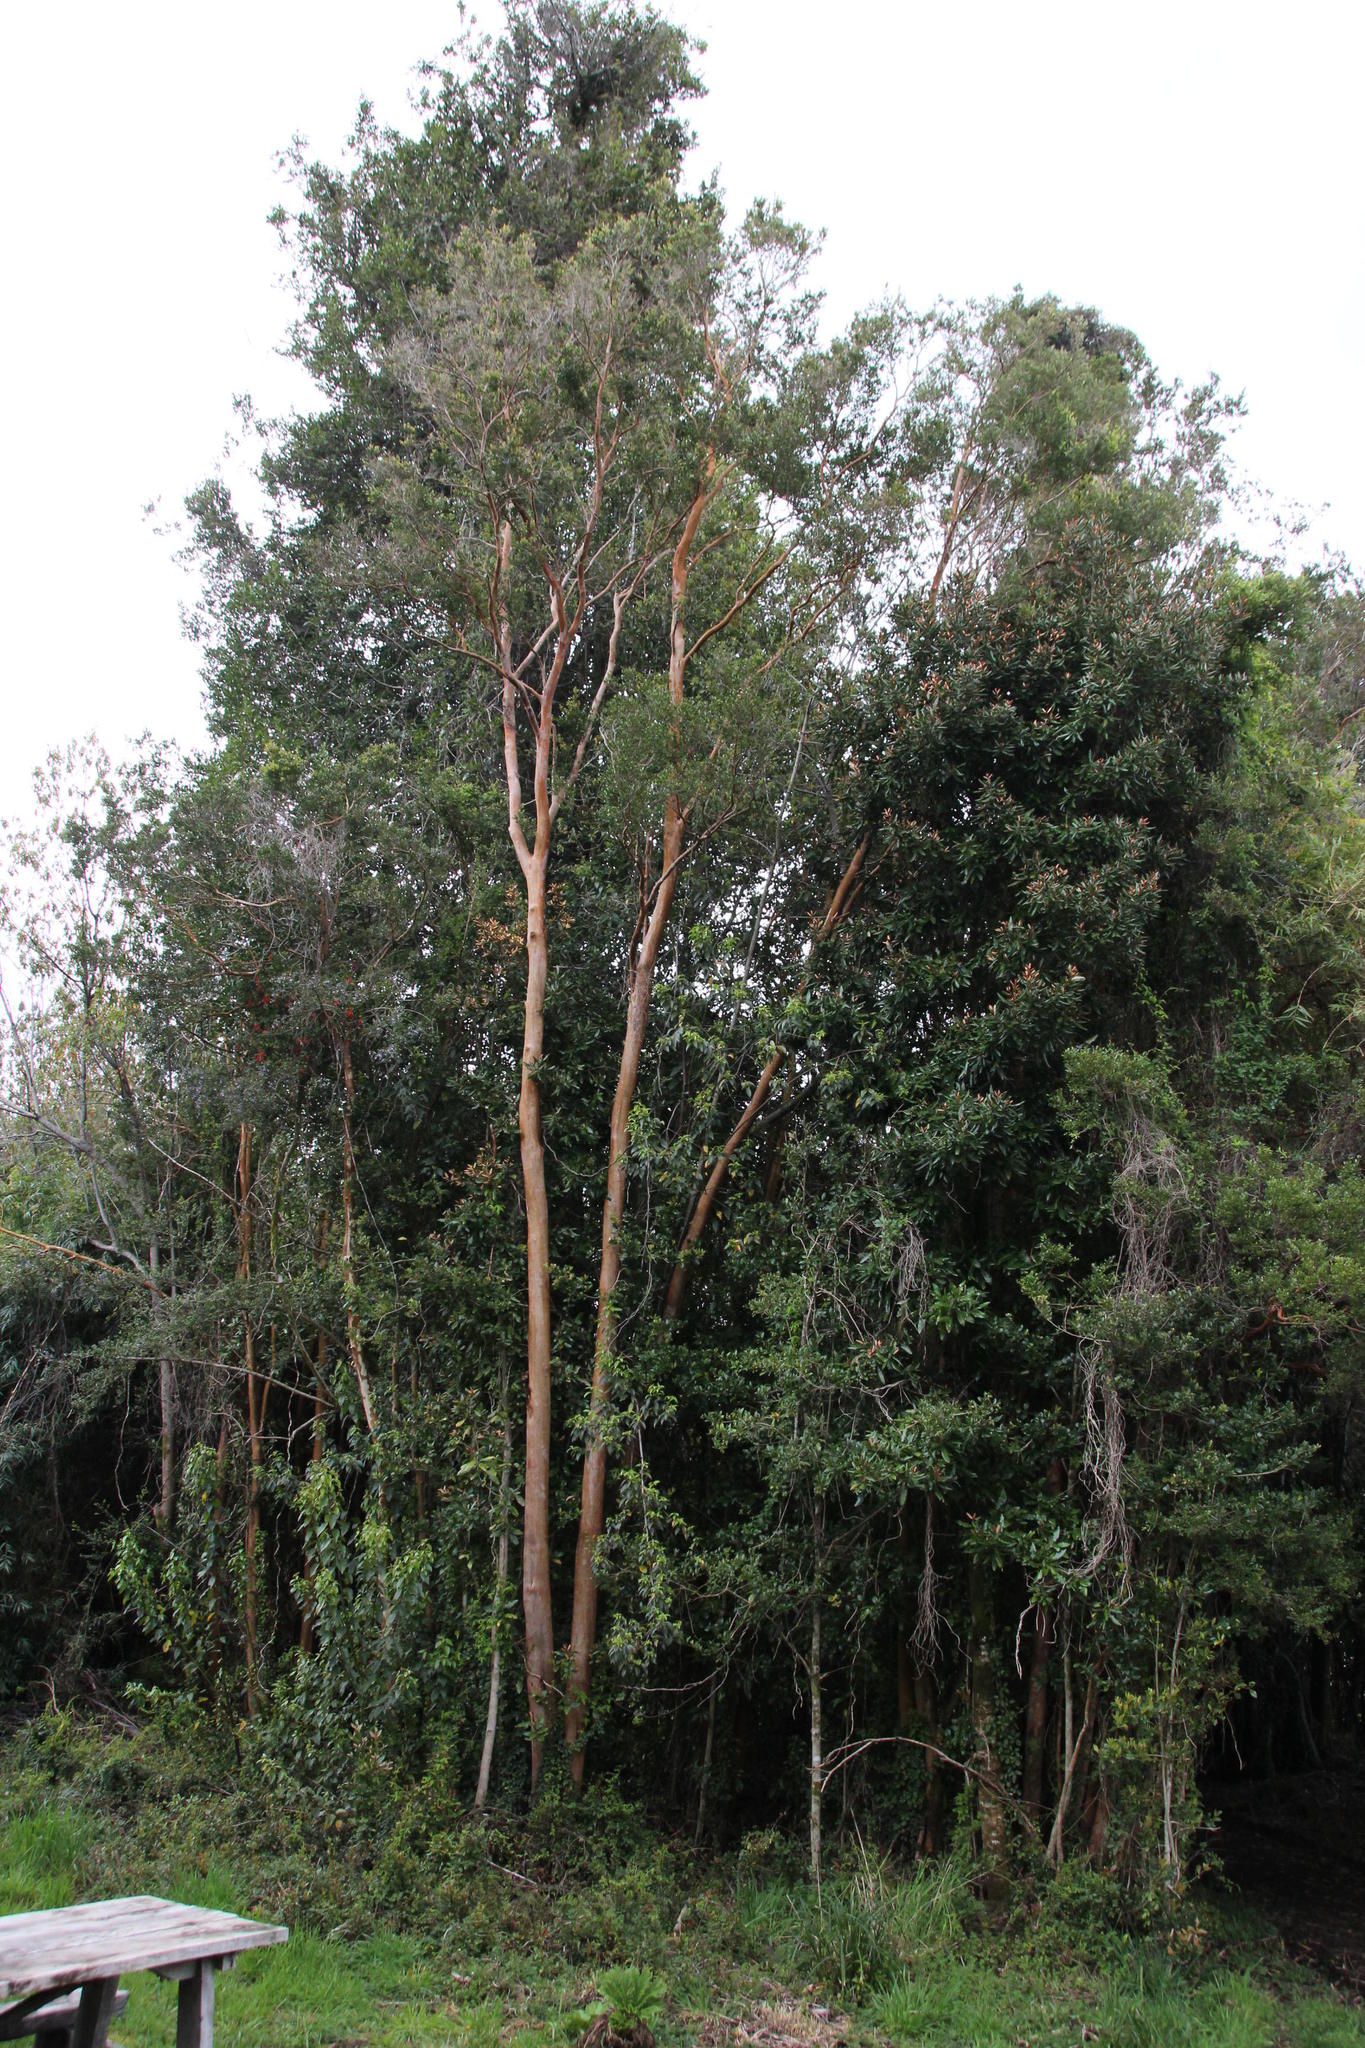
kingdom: Plantae
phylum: Tracheophyta
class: Magnoliopsida
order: Myrtales
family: Myrtaceae
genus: Luma
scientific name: Luma apiculata
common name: Chilean myrtle
